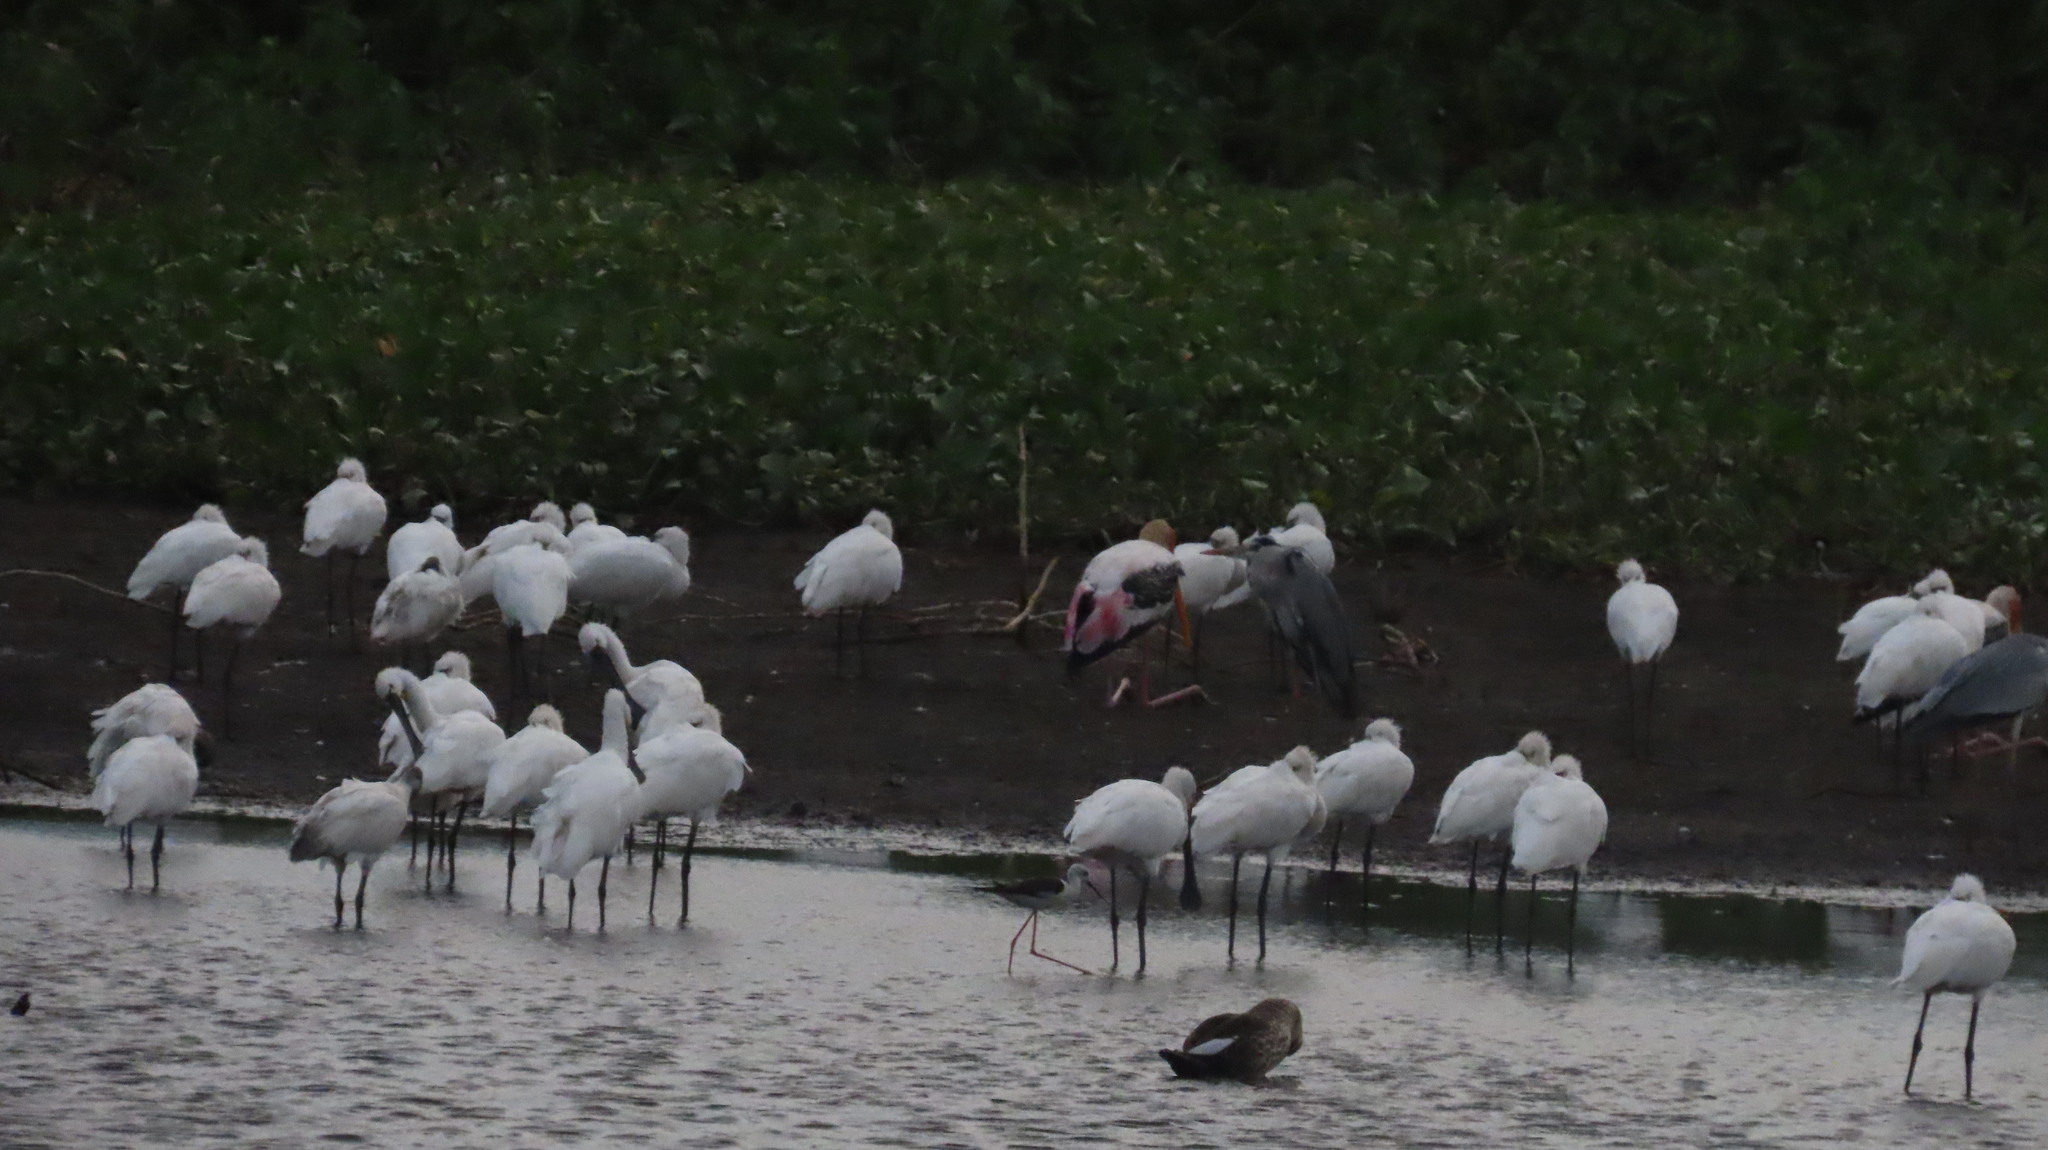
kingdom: Animalia
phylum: Chordata
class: Aves
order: Pelecaniformes
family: Threskiornithidae
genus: Platalea
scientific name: Platalea leucorodia
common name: Eurasian spoonbill
